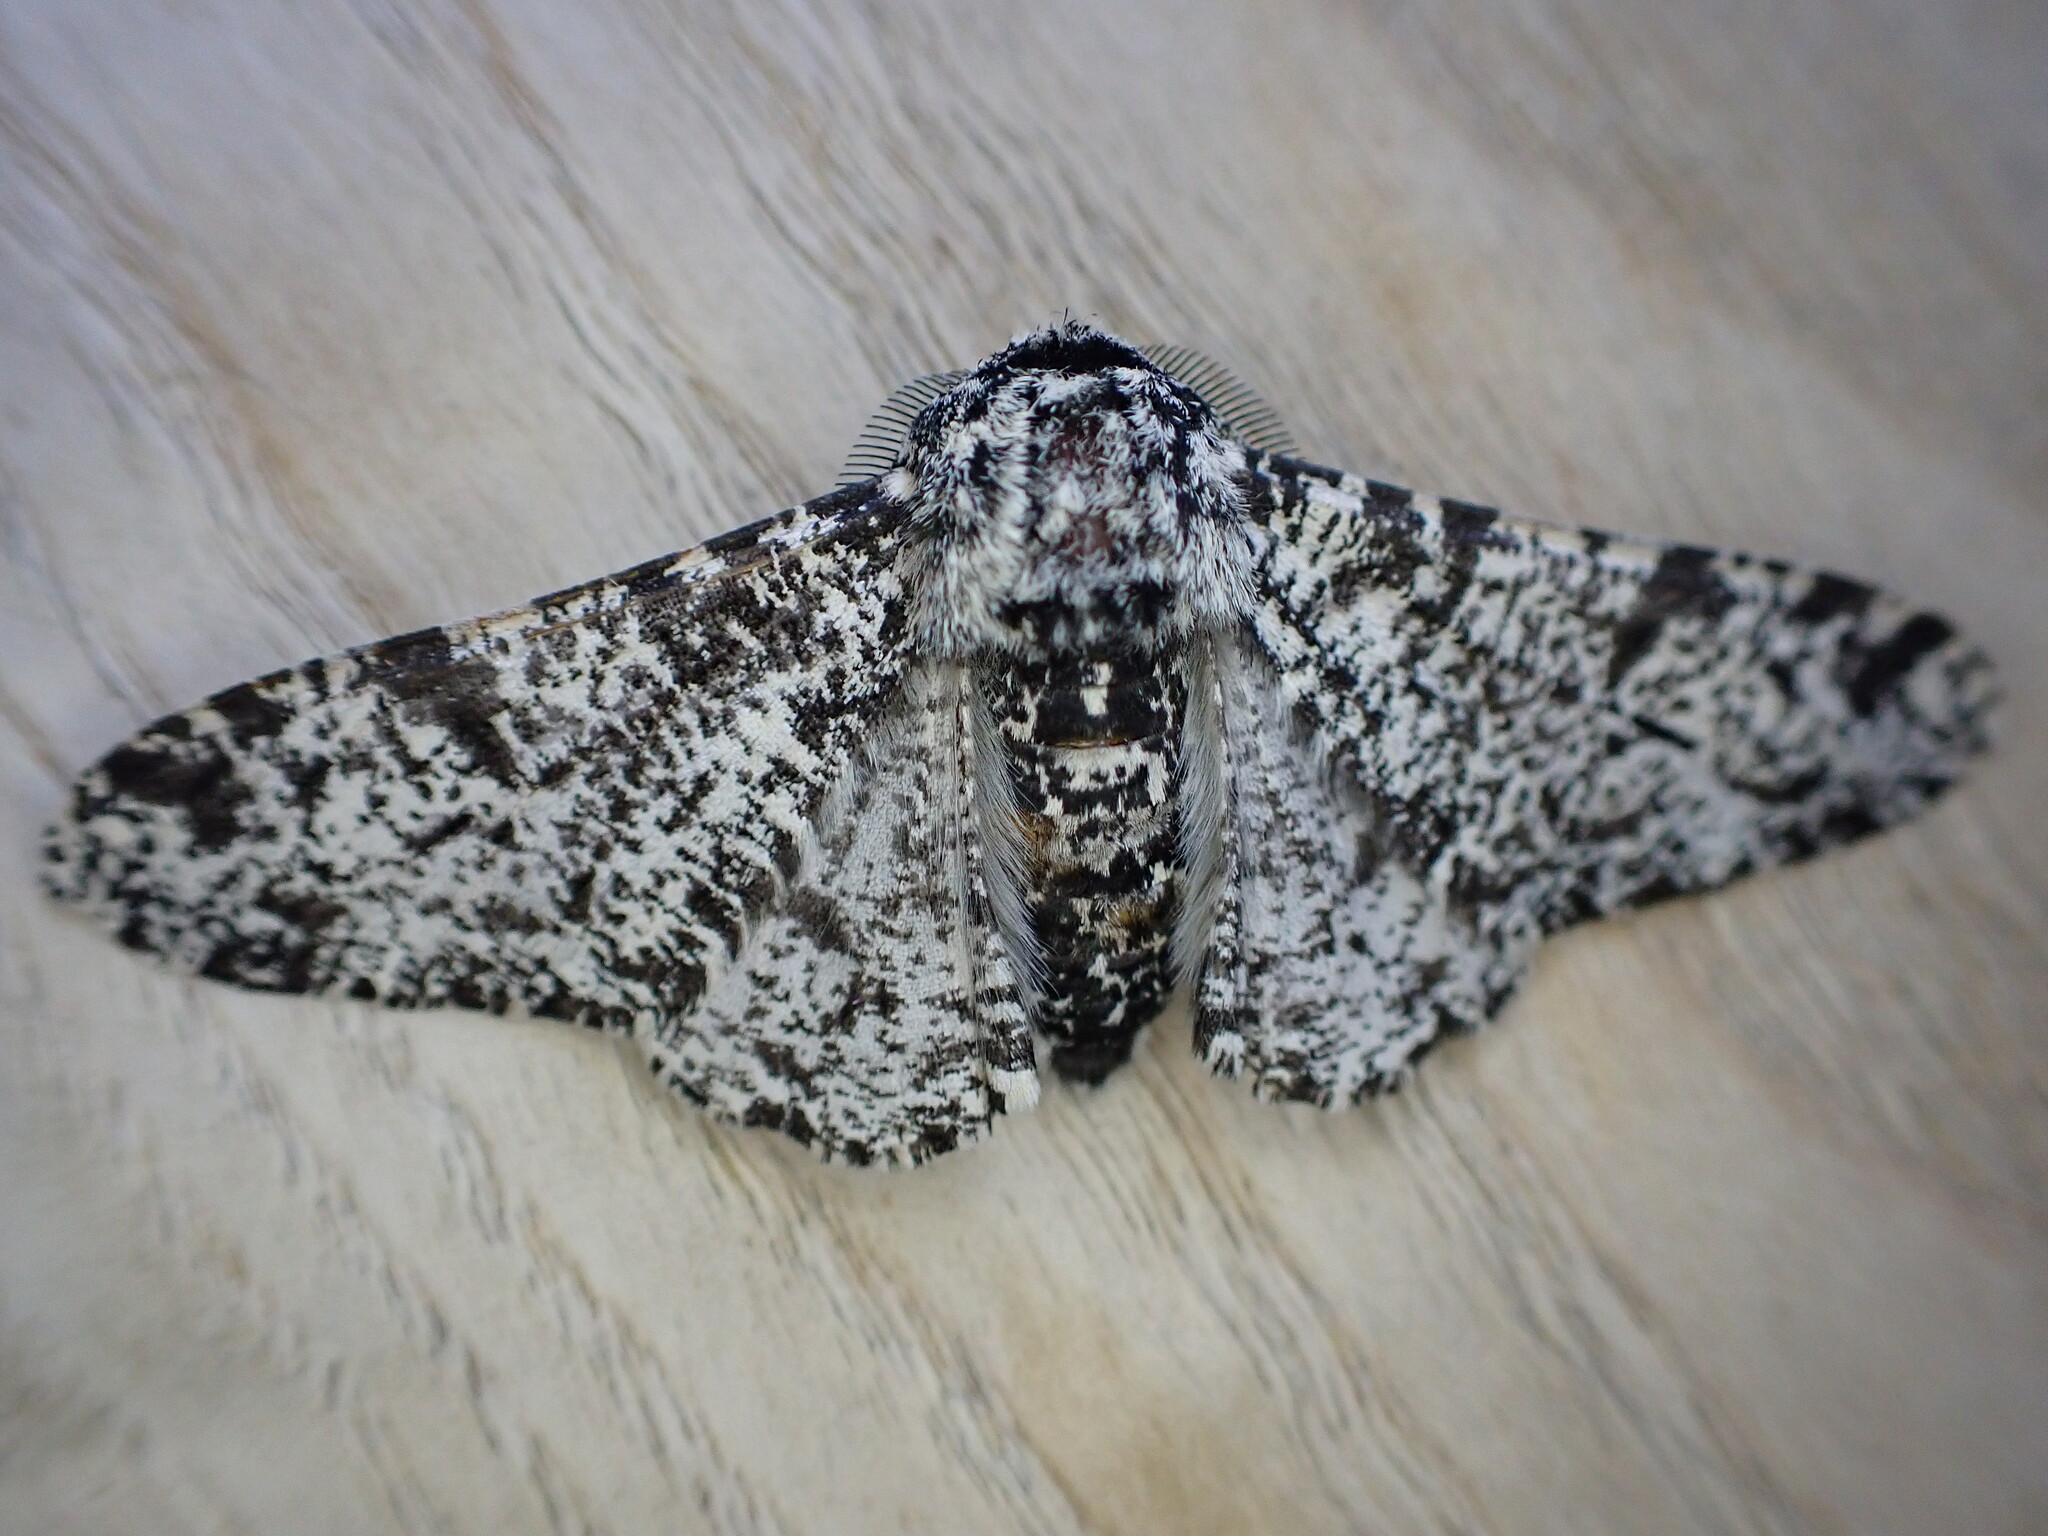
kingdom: Animalia
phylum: Arthropoda
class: Insecta
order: Lepidoptera
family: Geometridae
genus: Biston
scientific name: Biston betularia
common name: Peppered moth
